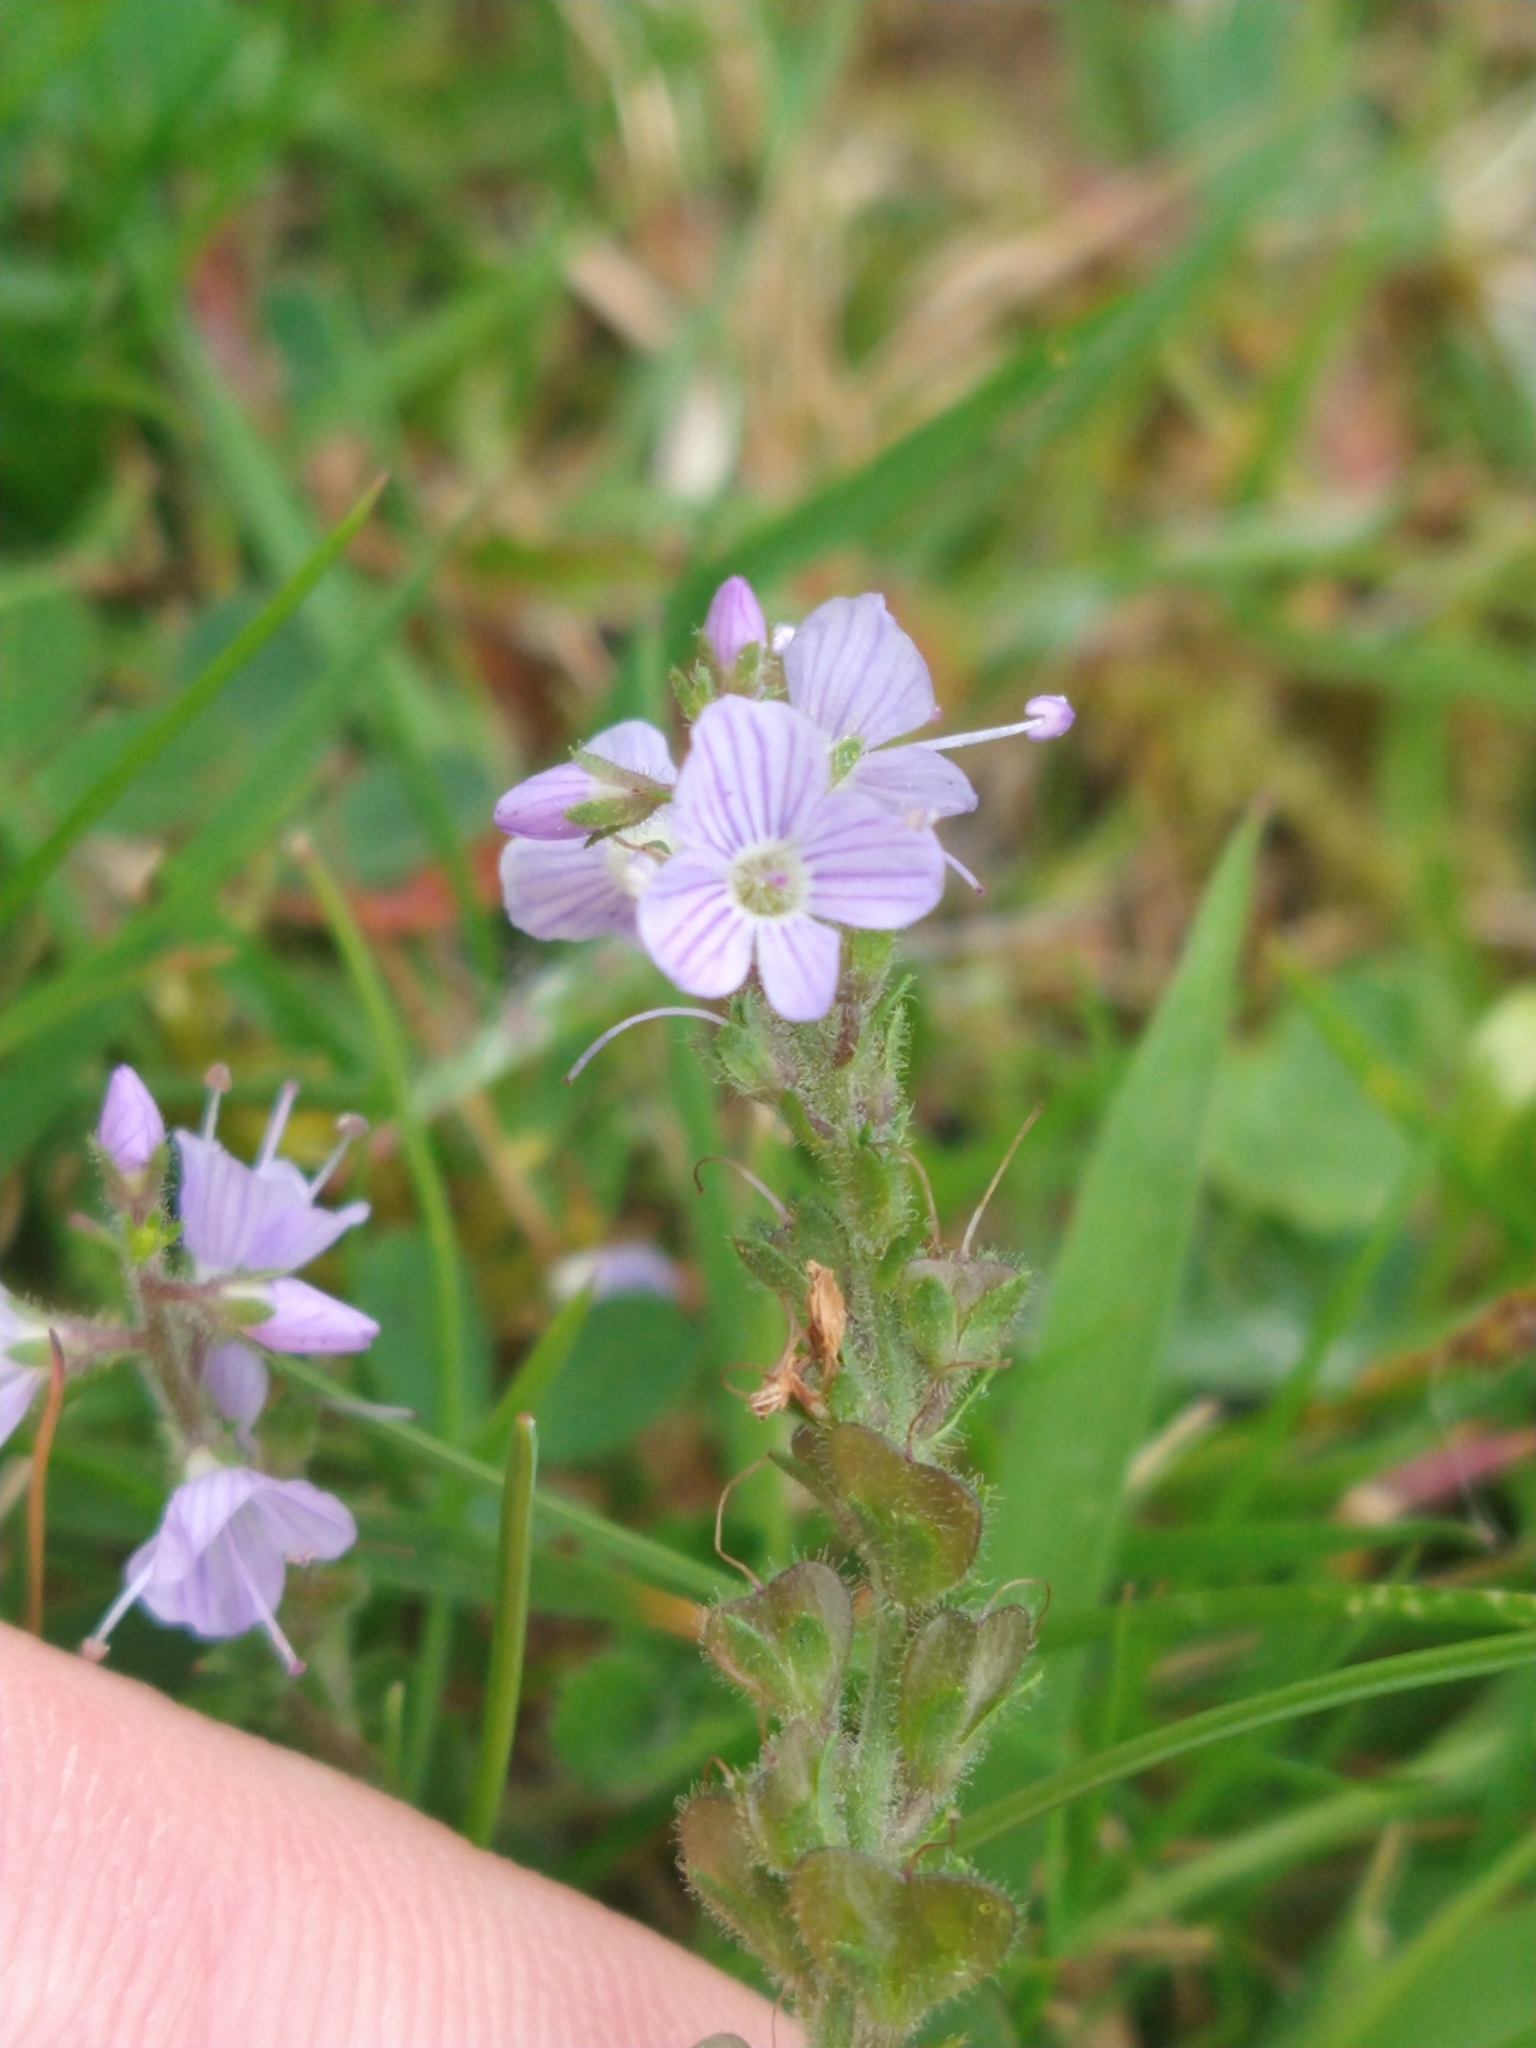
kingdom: Plantae
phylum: Tracheophyta
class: Magnoliopsida
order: Lamiales
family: Plantaginaceae
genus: Veronica
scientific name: Veronica officinalis
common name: Common speedwell
